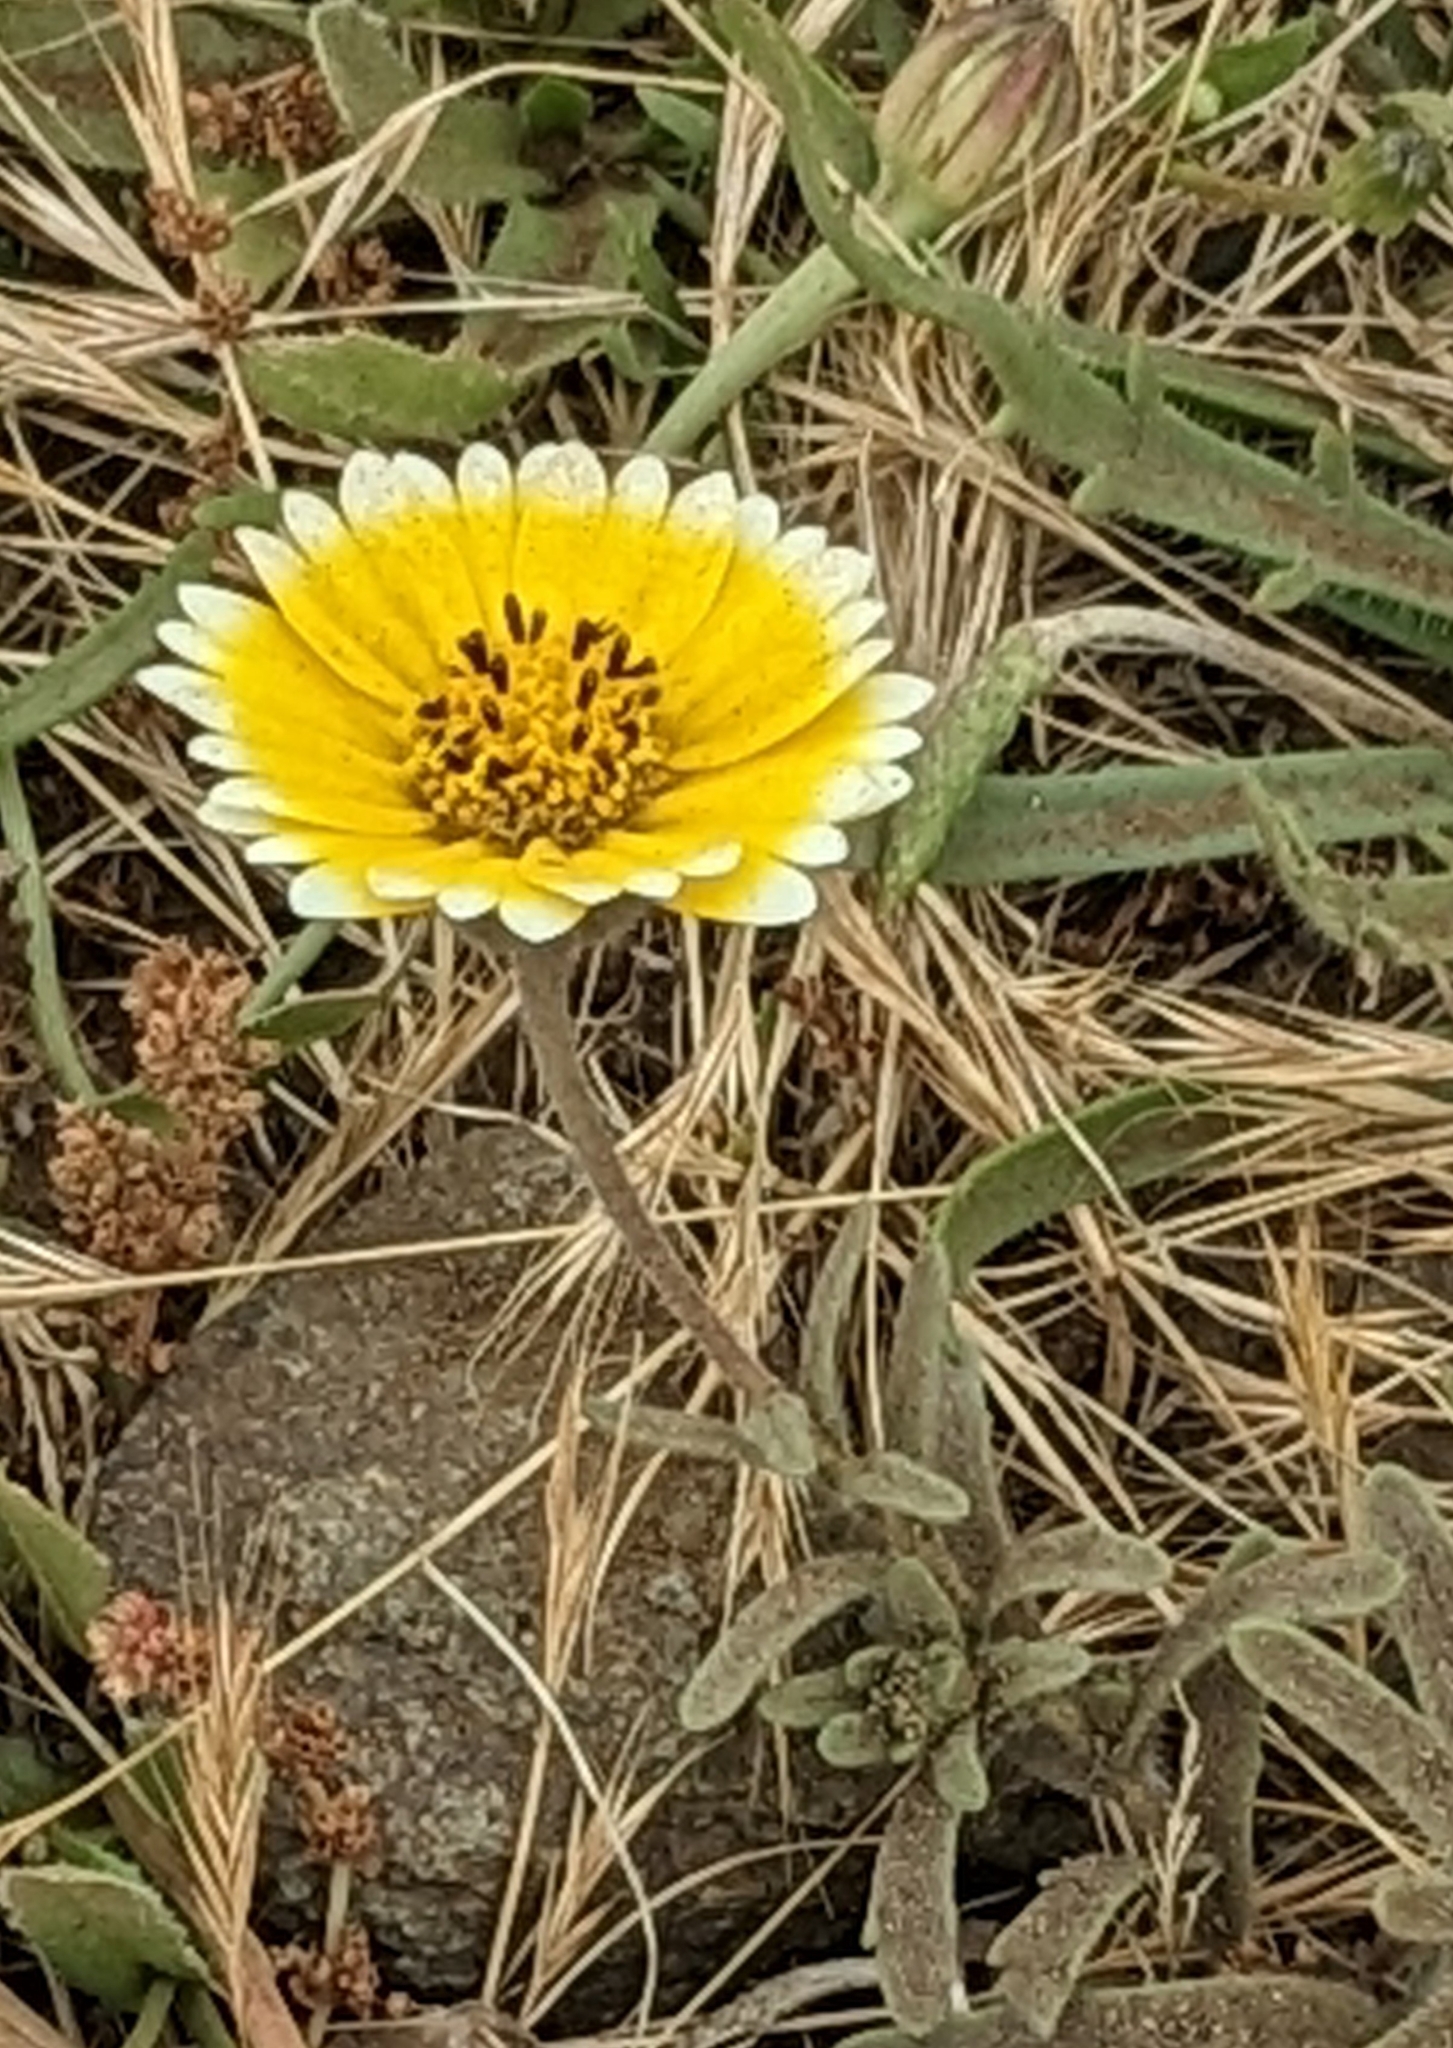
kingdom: Plantae
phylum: Tracheophyta
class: Magnoliopsida
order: Asterales
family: Asteraceae
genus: Layia
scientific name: Layia platyglossa
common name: Tidy-tips
